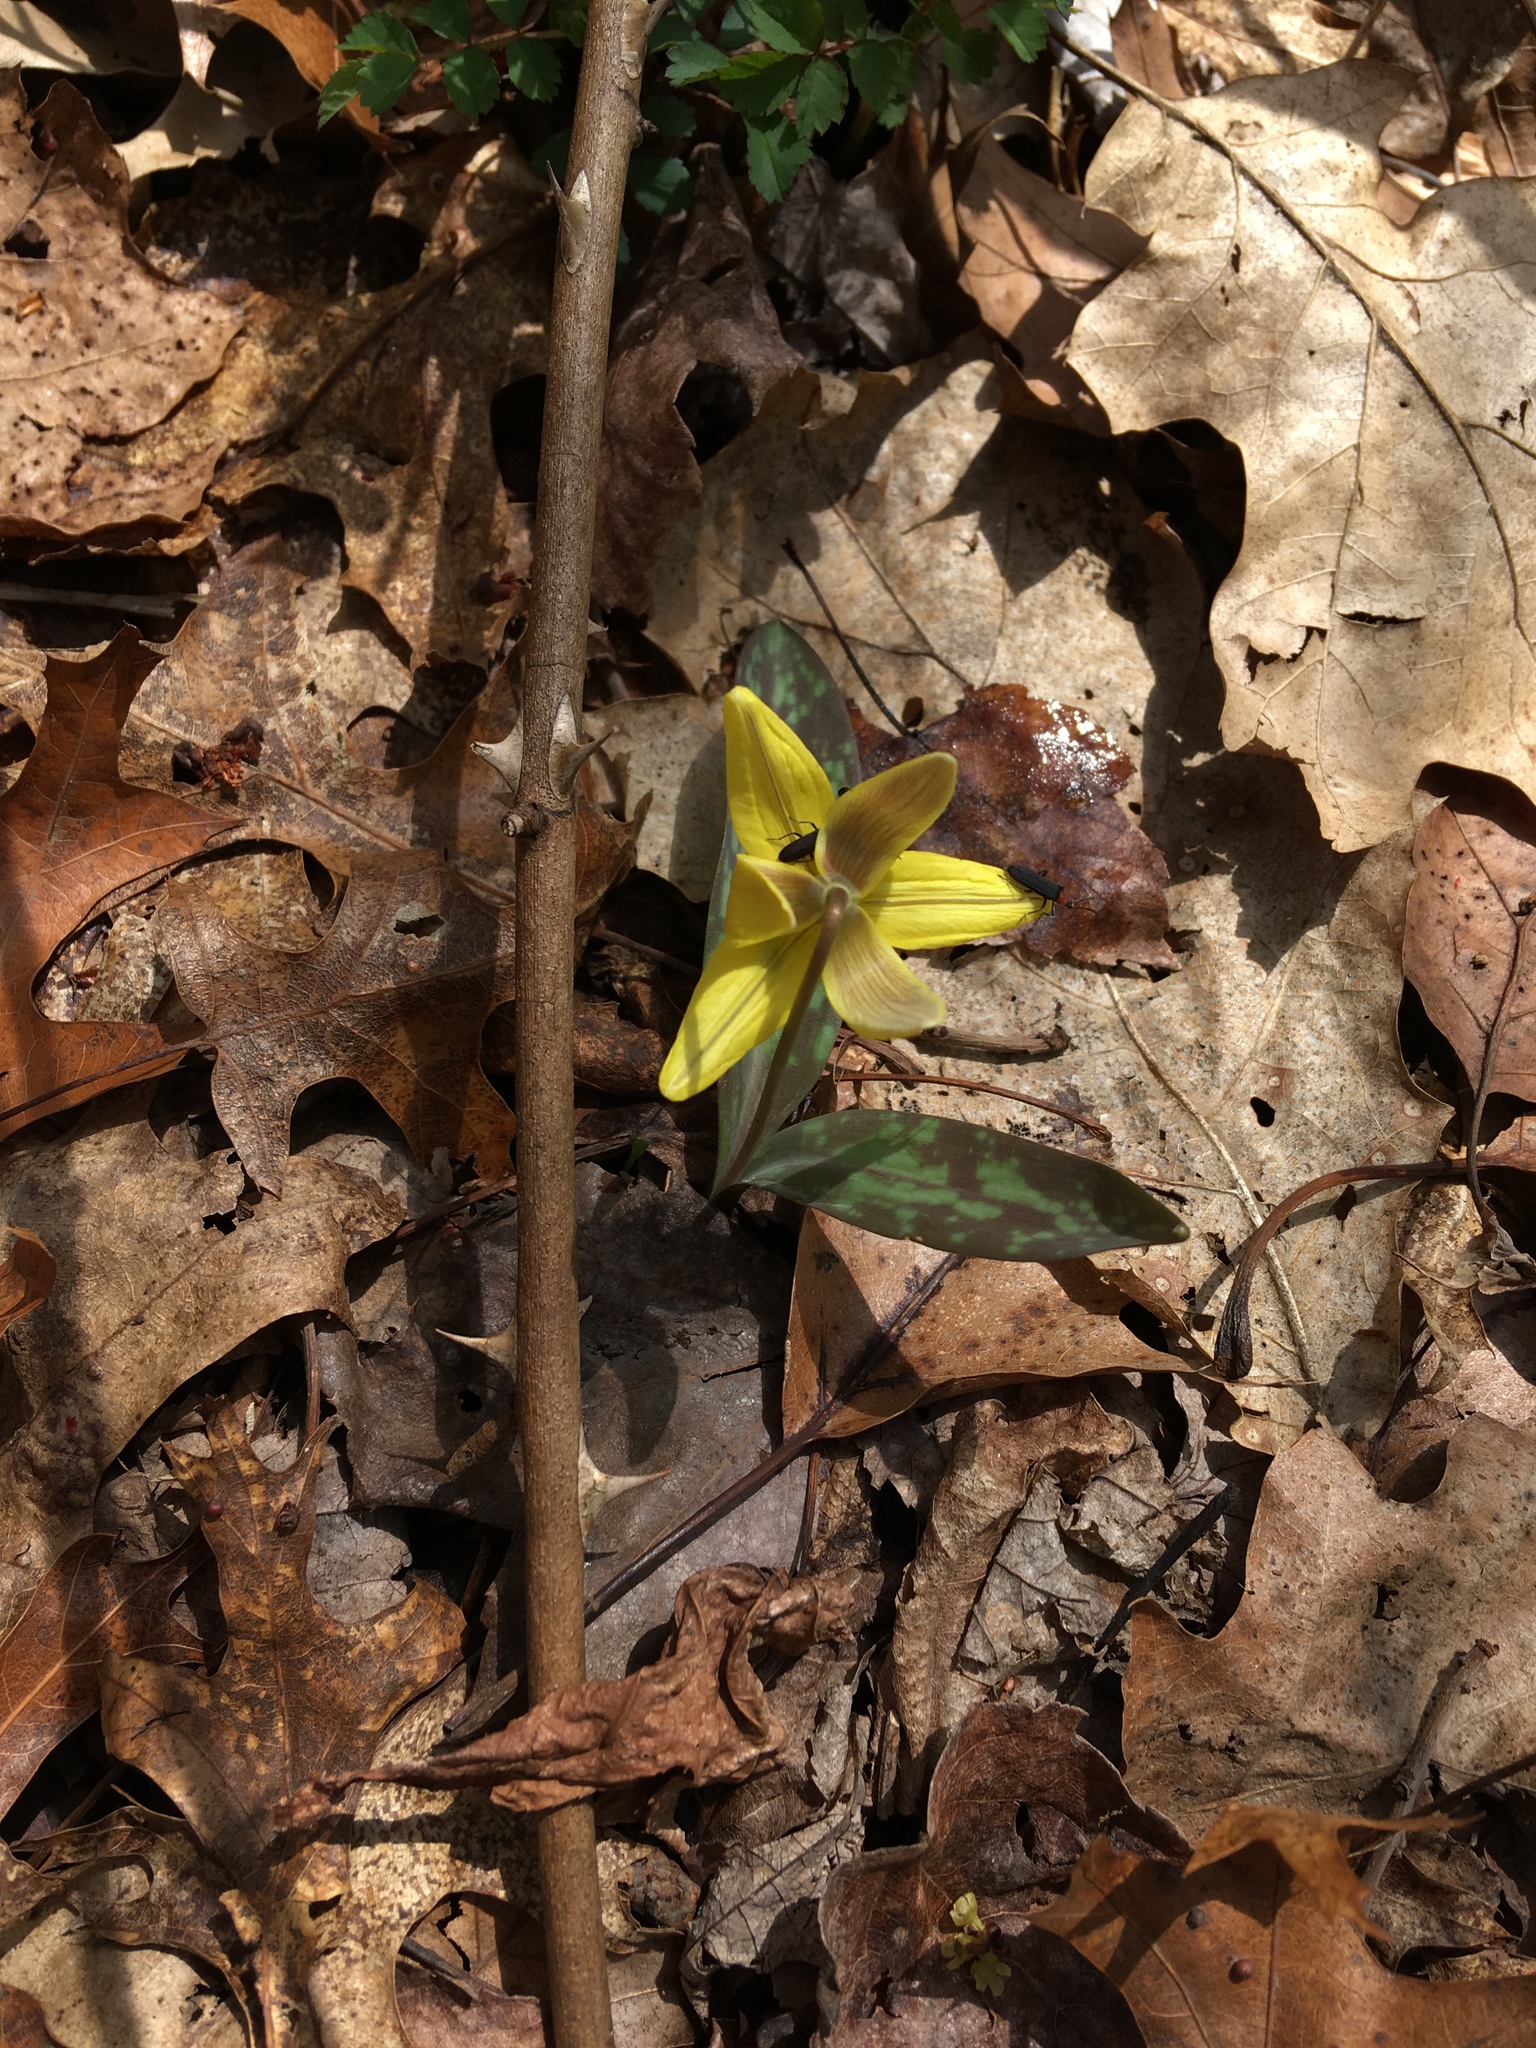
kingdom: Plantae
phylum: Tracheophyta
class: Liliopsida
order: Liliales
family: Liliaceae
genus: Erythronium
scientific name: Erythronium americanum
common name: Yellow adder's-tongue
